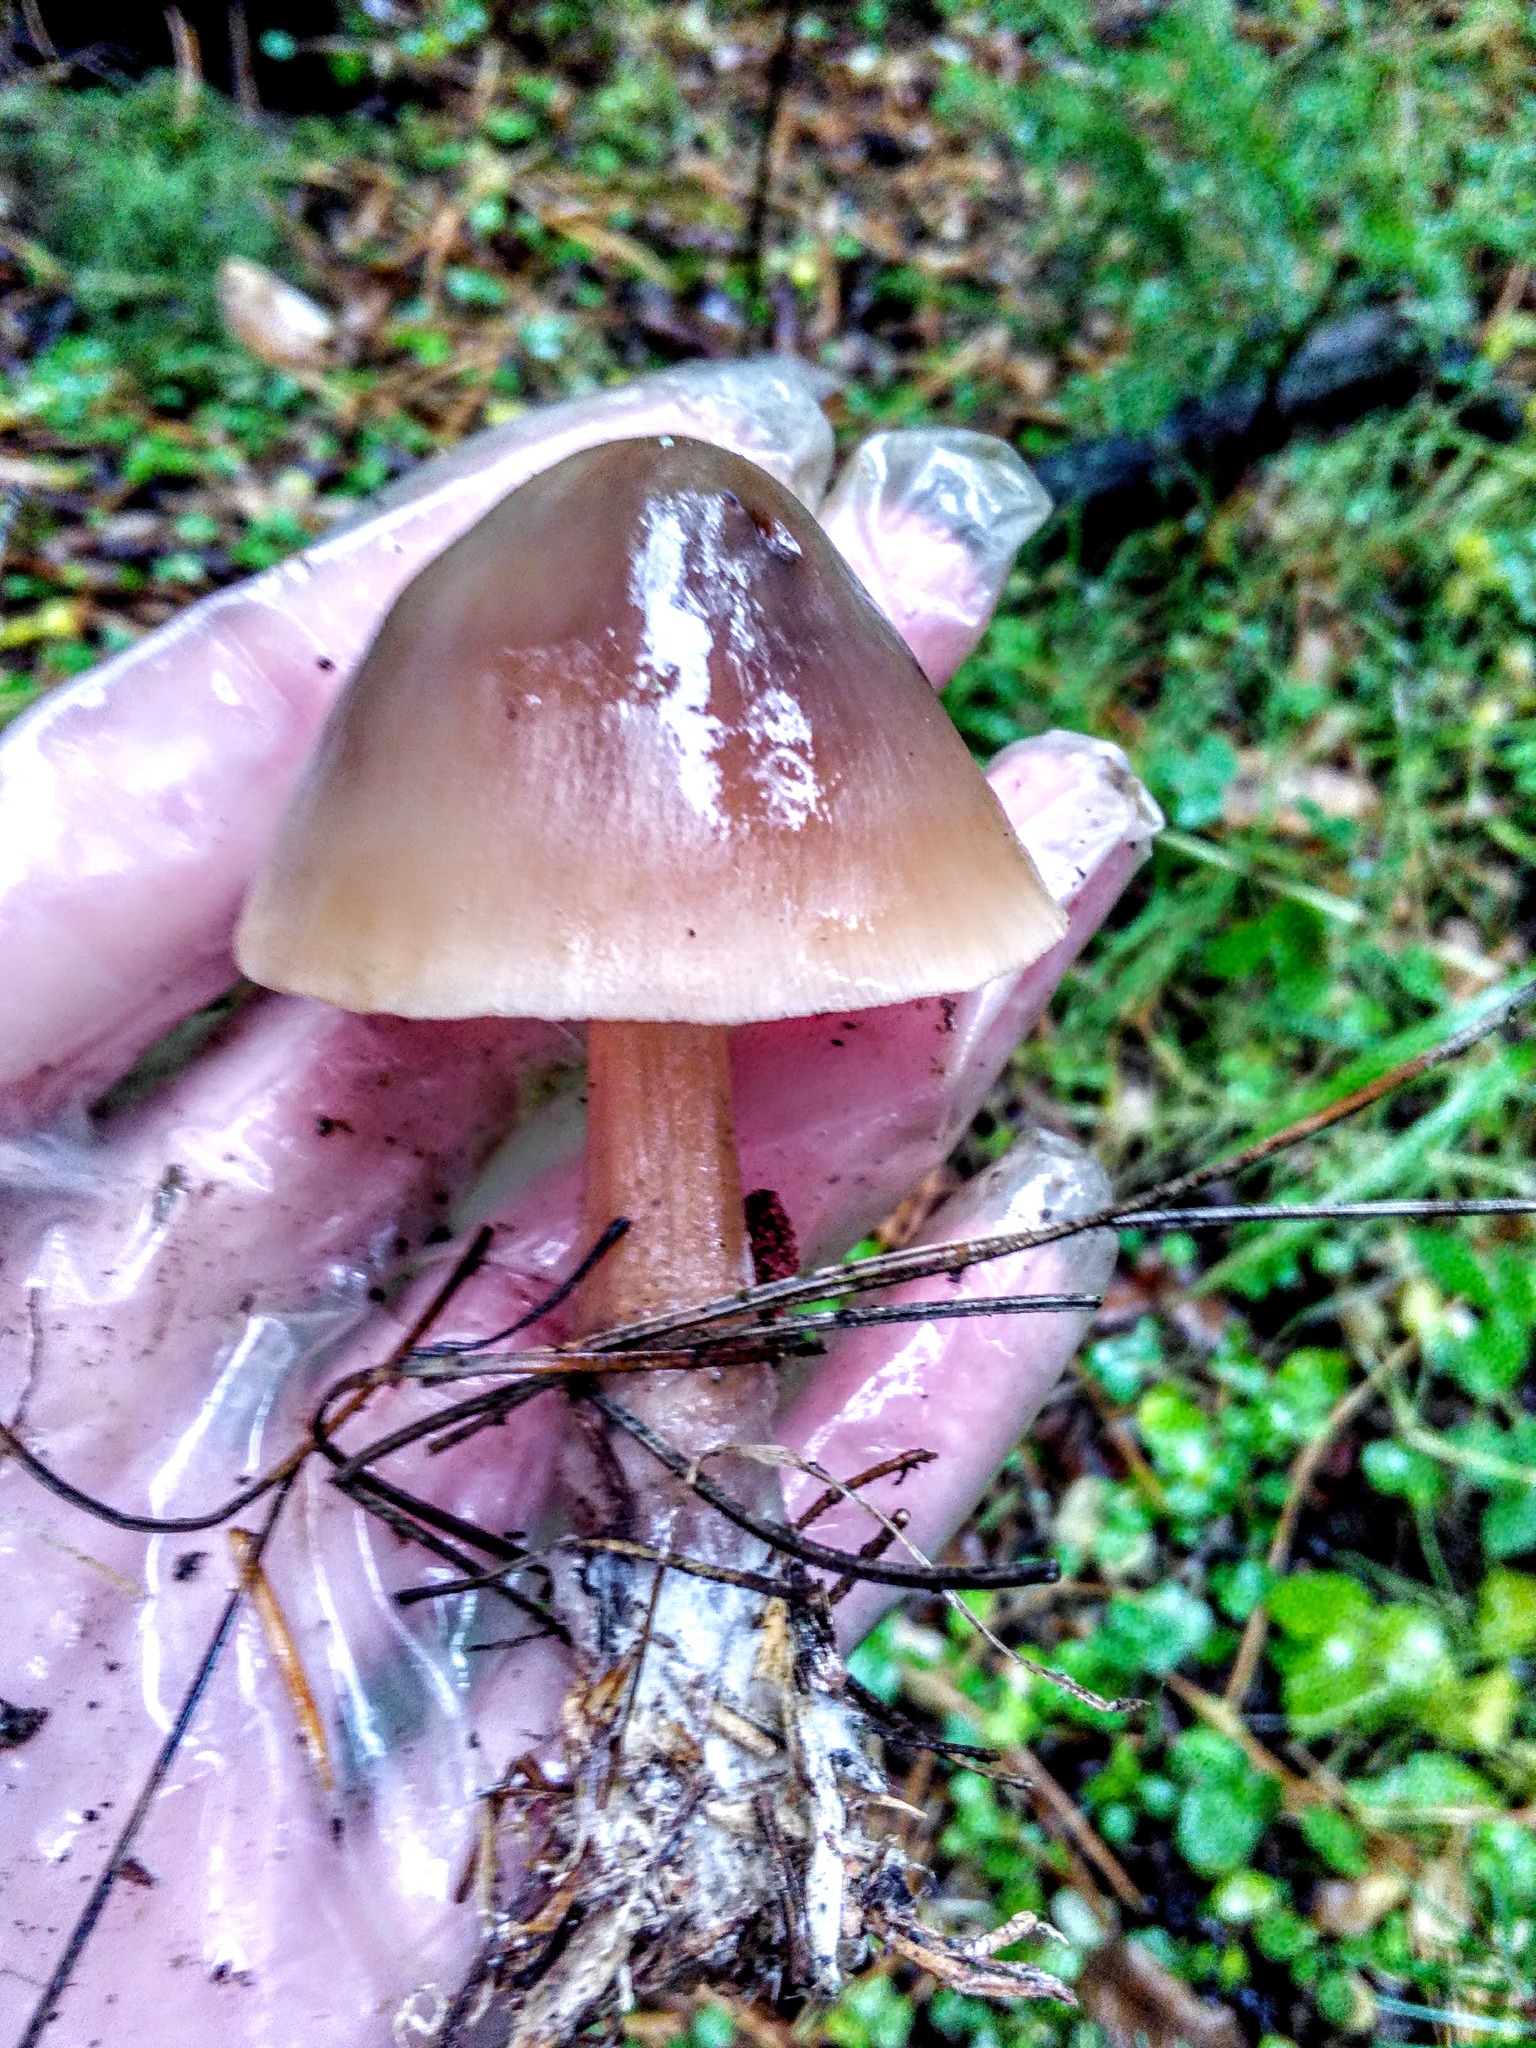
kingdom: Fungi
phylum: Basidiomycota
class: Agaricomycetes
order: Agaricales
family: Omphalotaceae
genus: Rhodocollybia
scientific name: Rhodocollybia butyracea
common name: Butter cap
